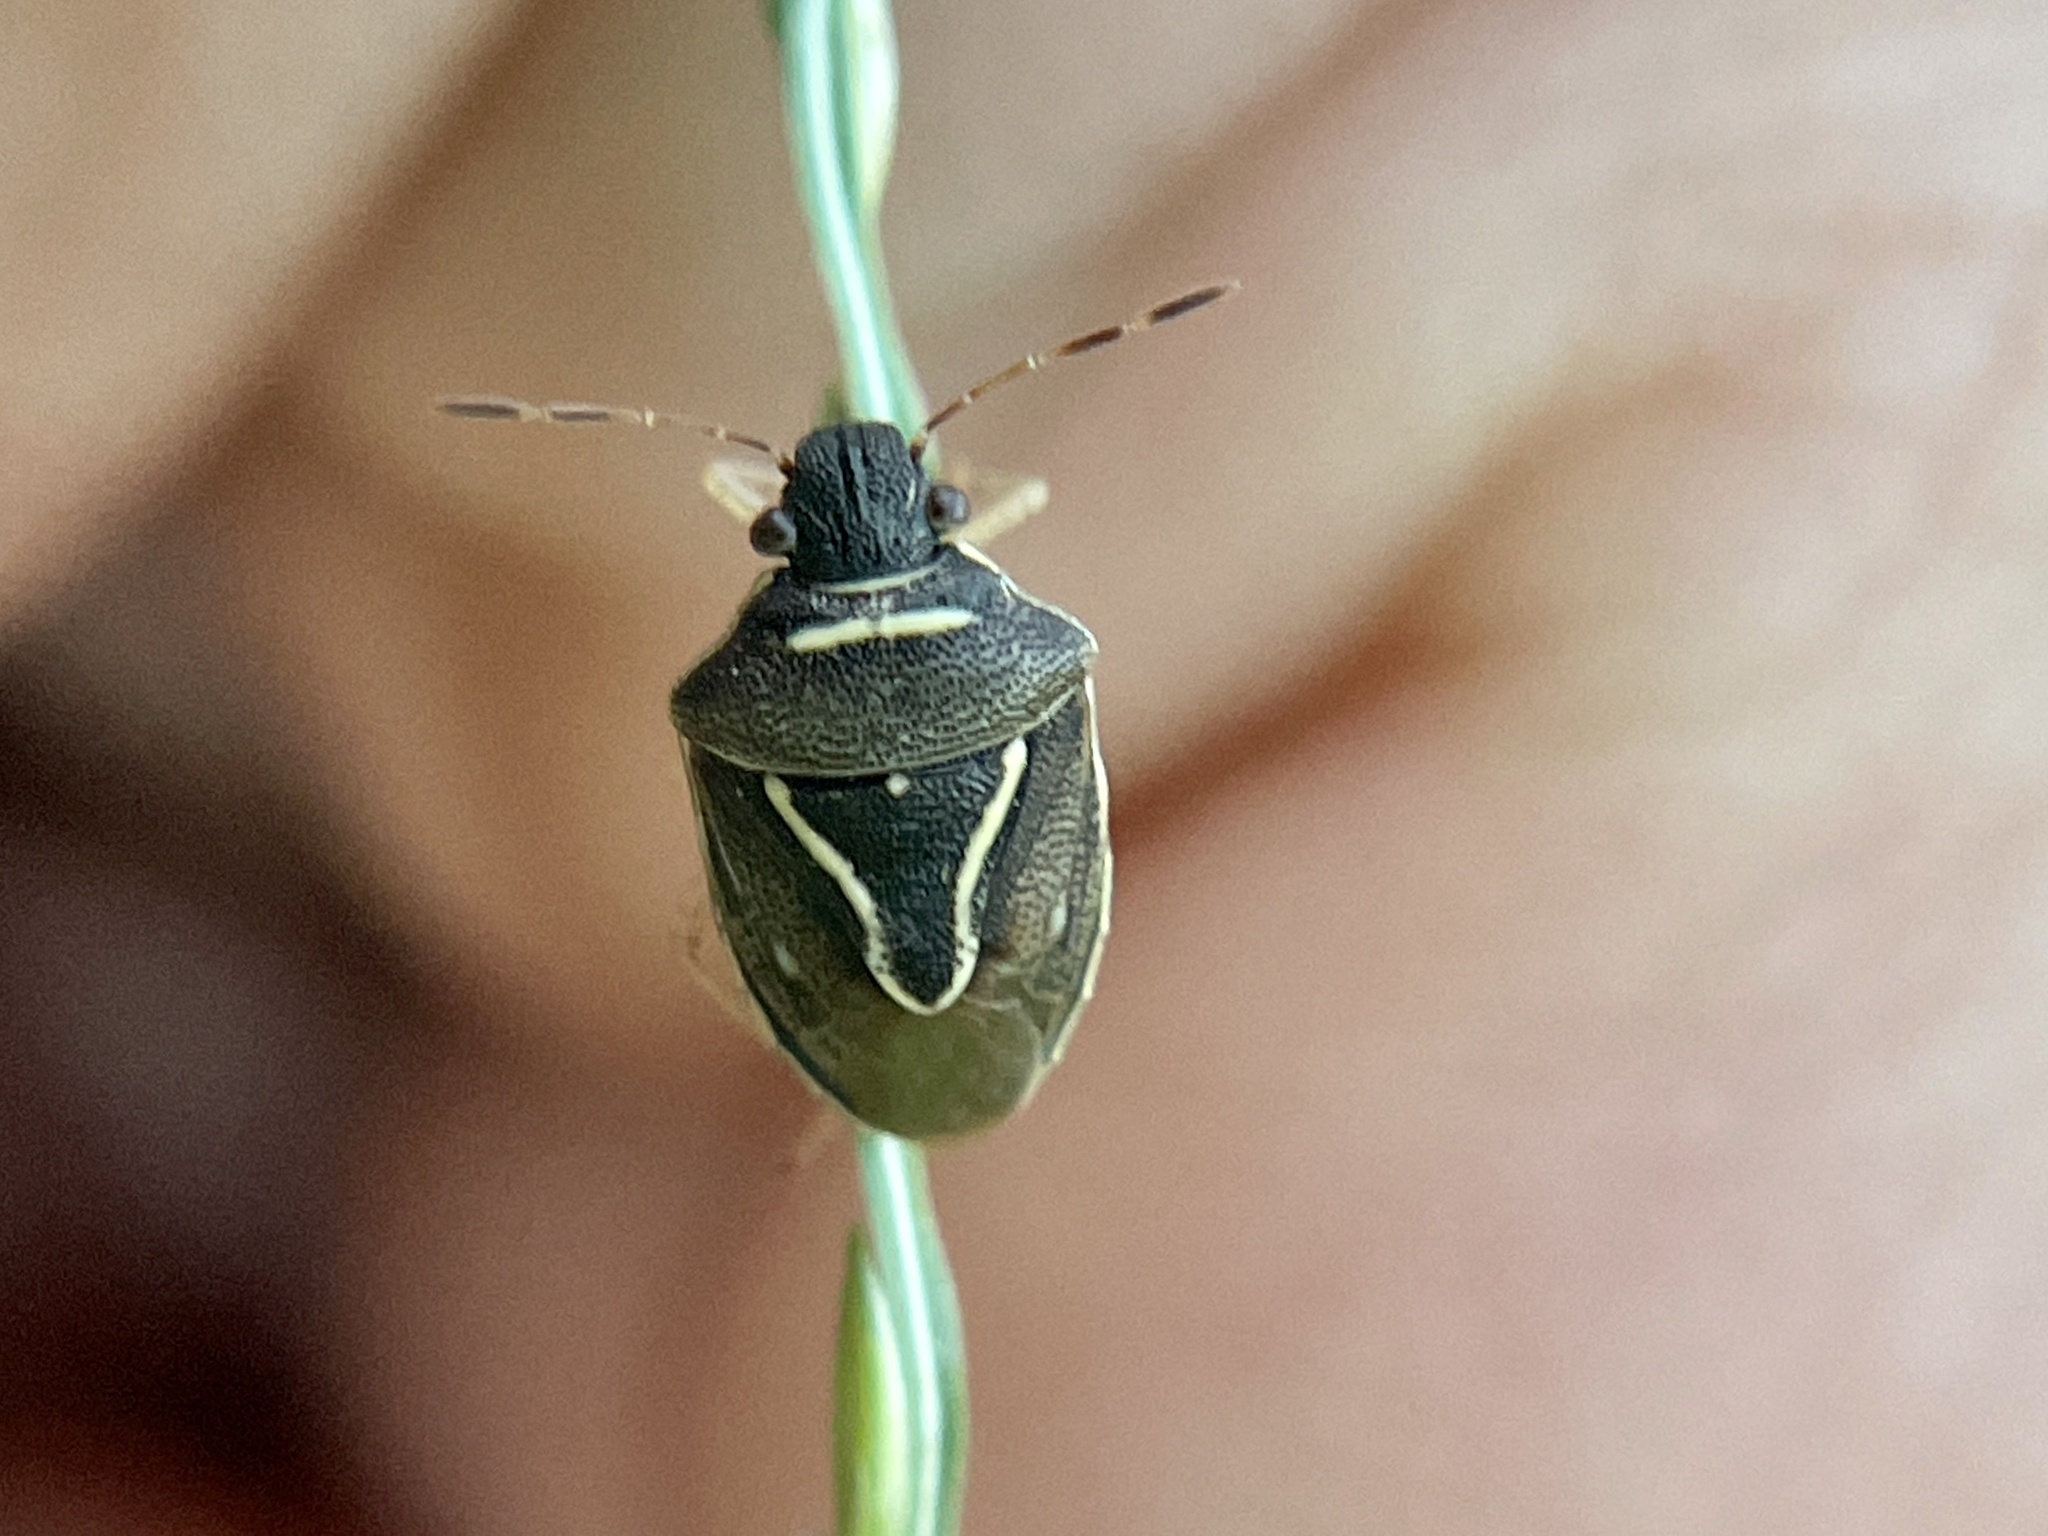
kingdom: Animalia
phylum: Arthropoda
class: Insecta
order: Hemiptera
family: Pentatomidae
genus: Mormidea
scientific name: Mormidea lugens
